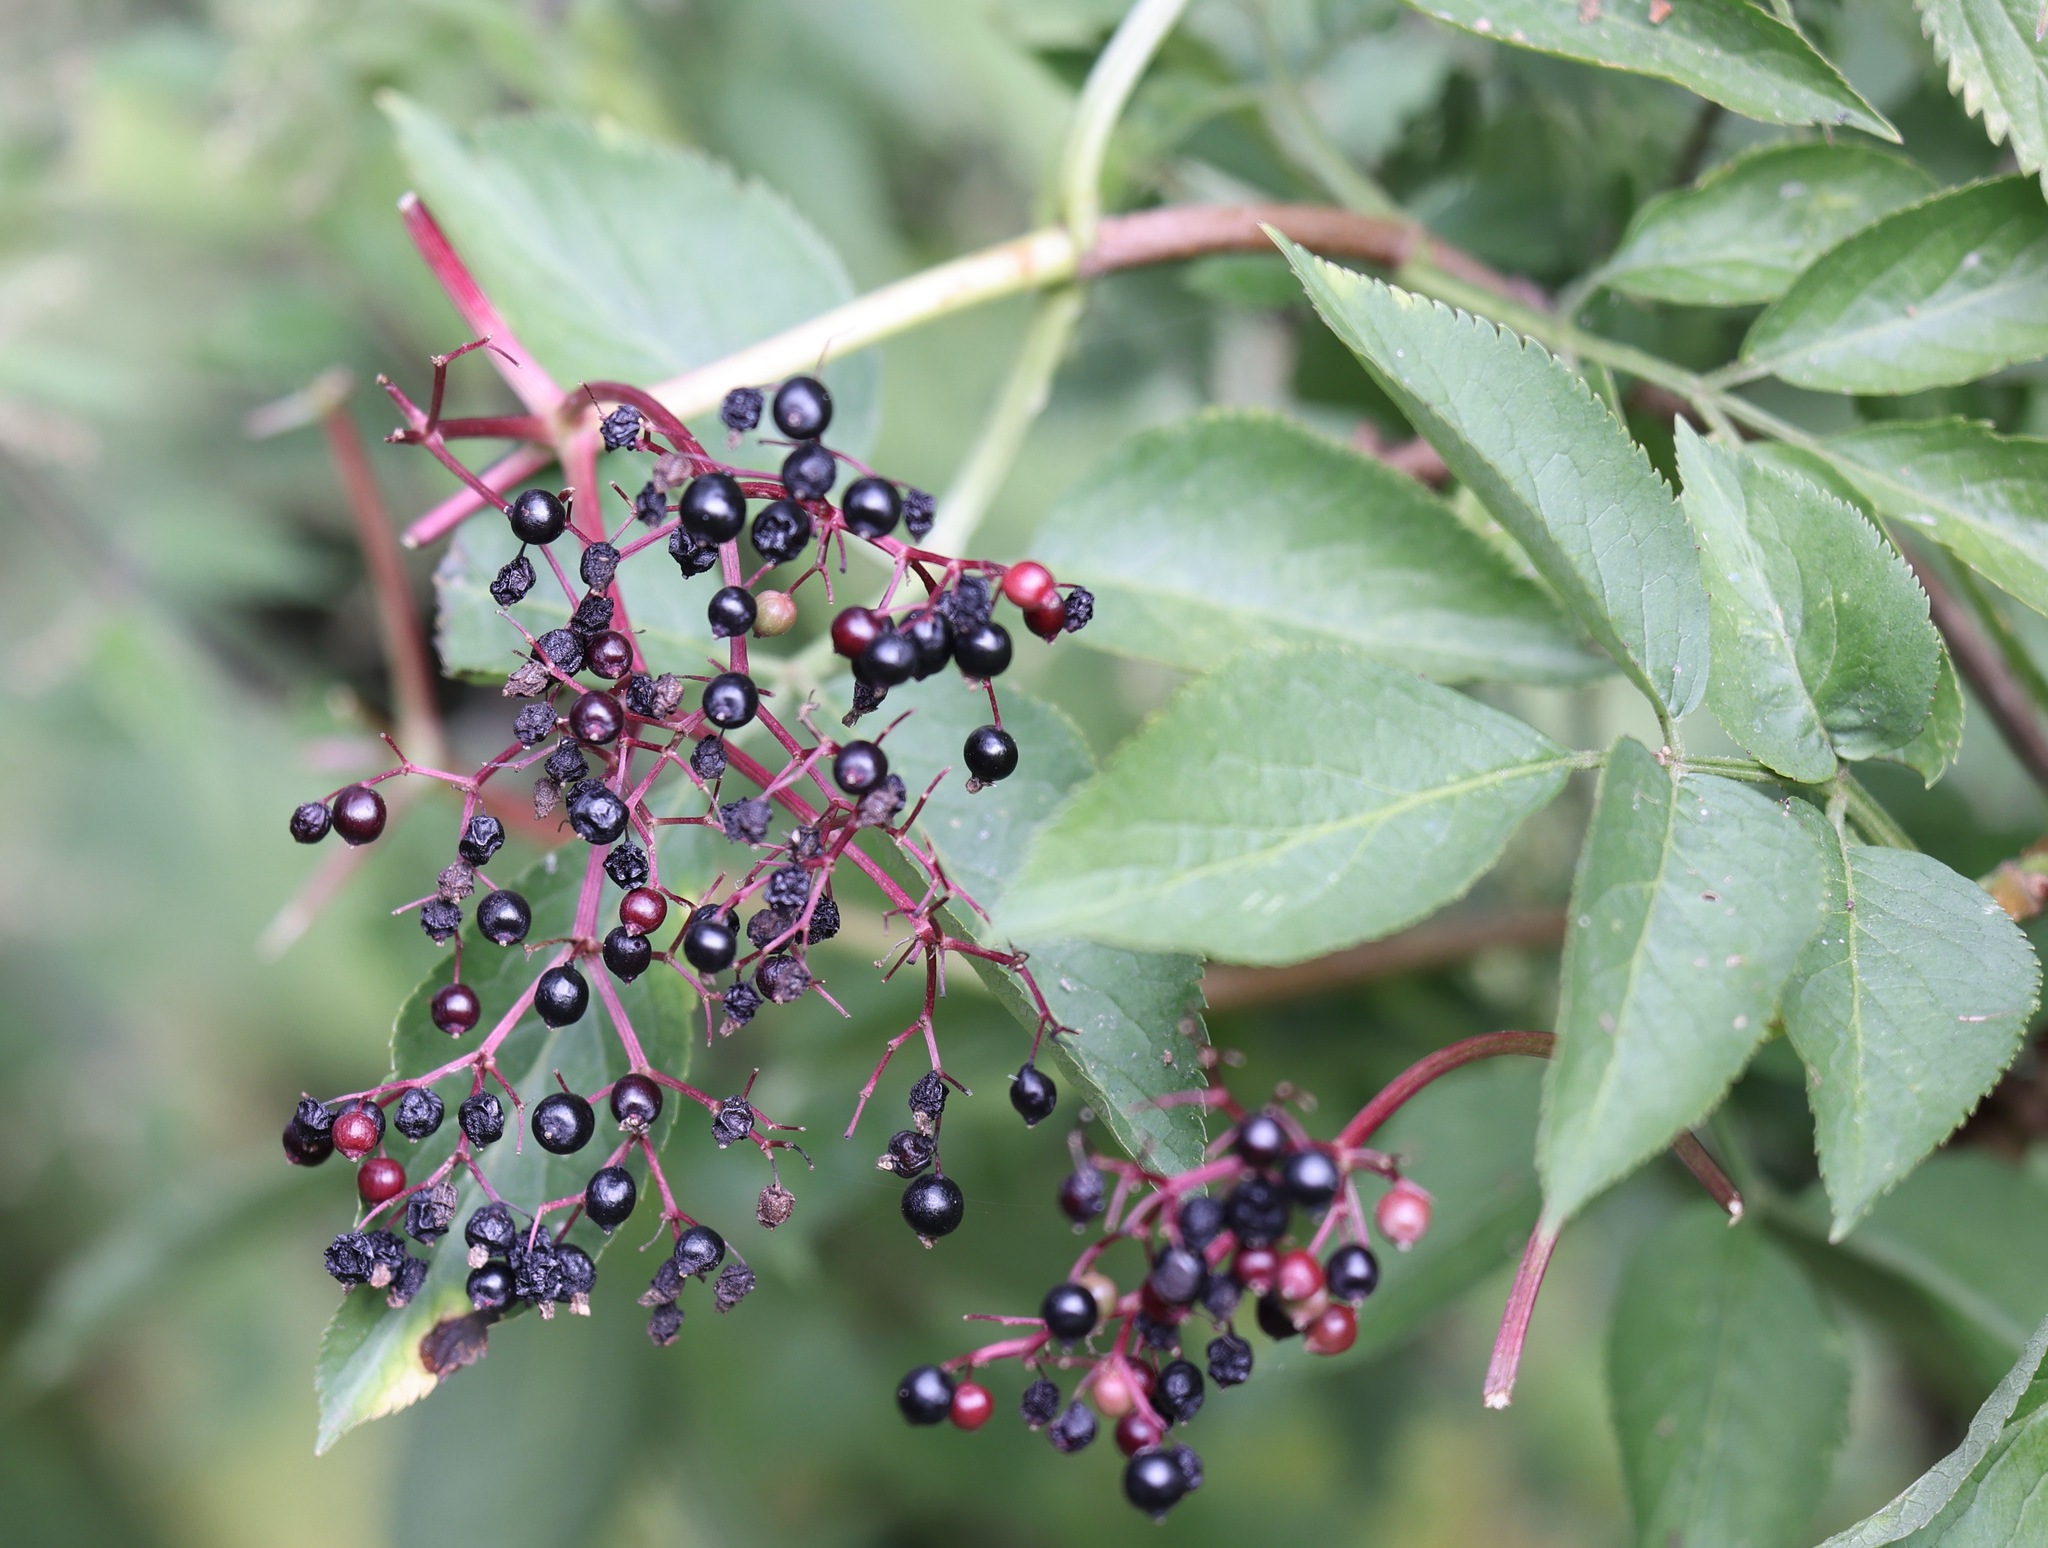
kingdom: Plantae
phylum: Tracheophyta
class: Magnoliopsida
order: Dipsacales
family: Viburnaceae
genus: Sambucus
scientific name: Sambucus nigra
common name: Elder
